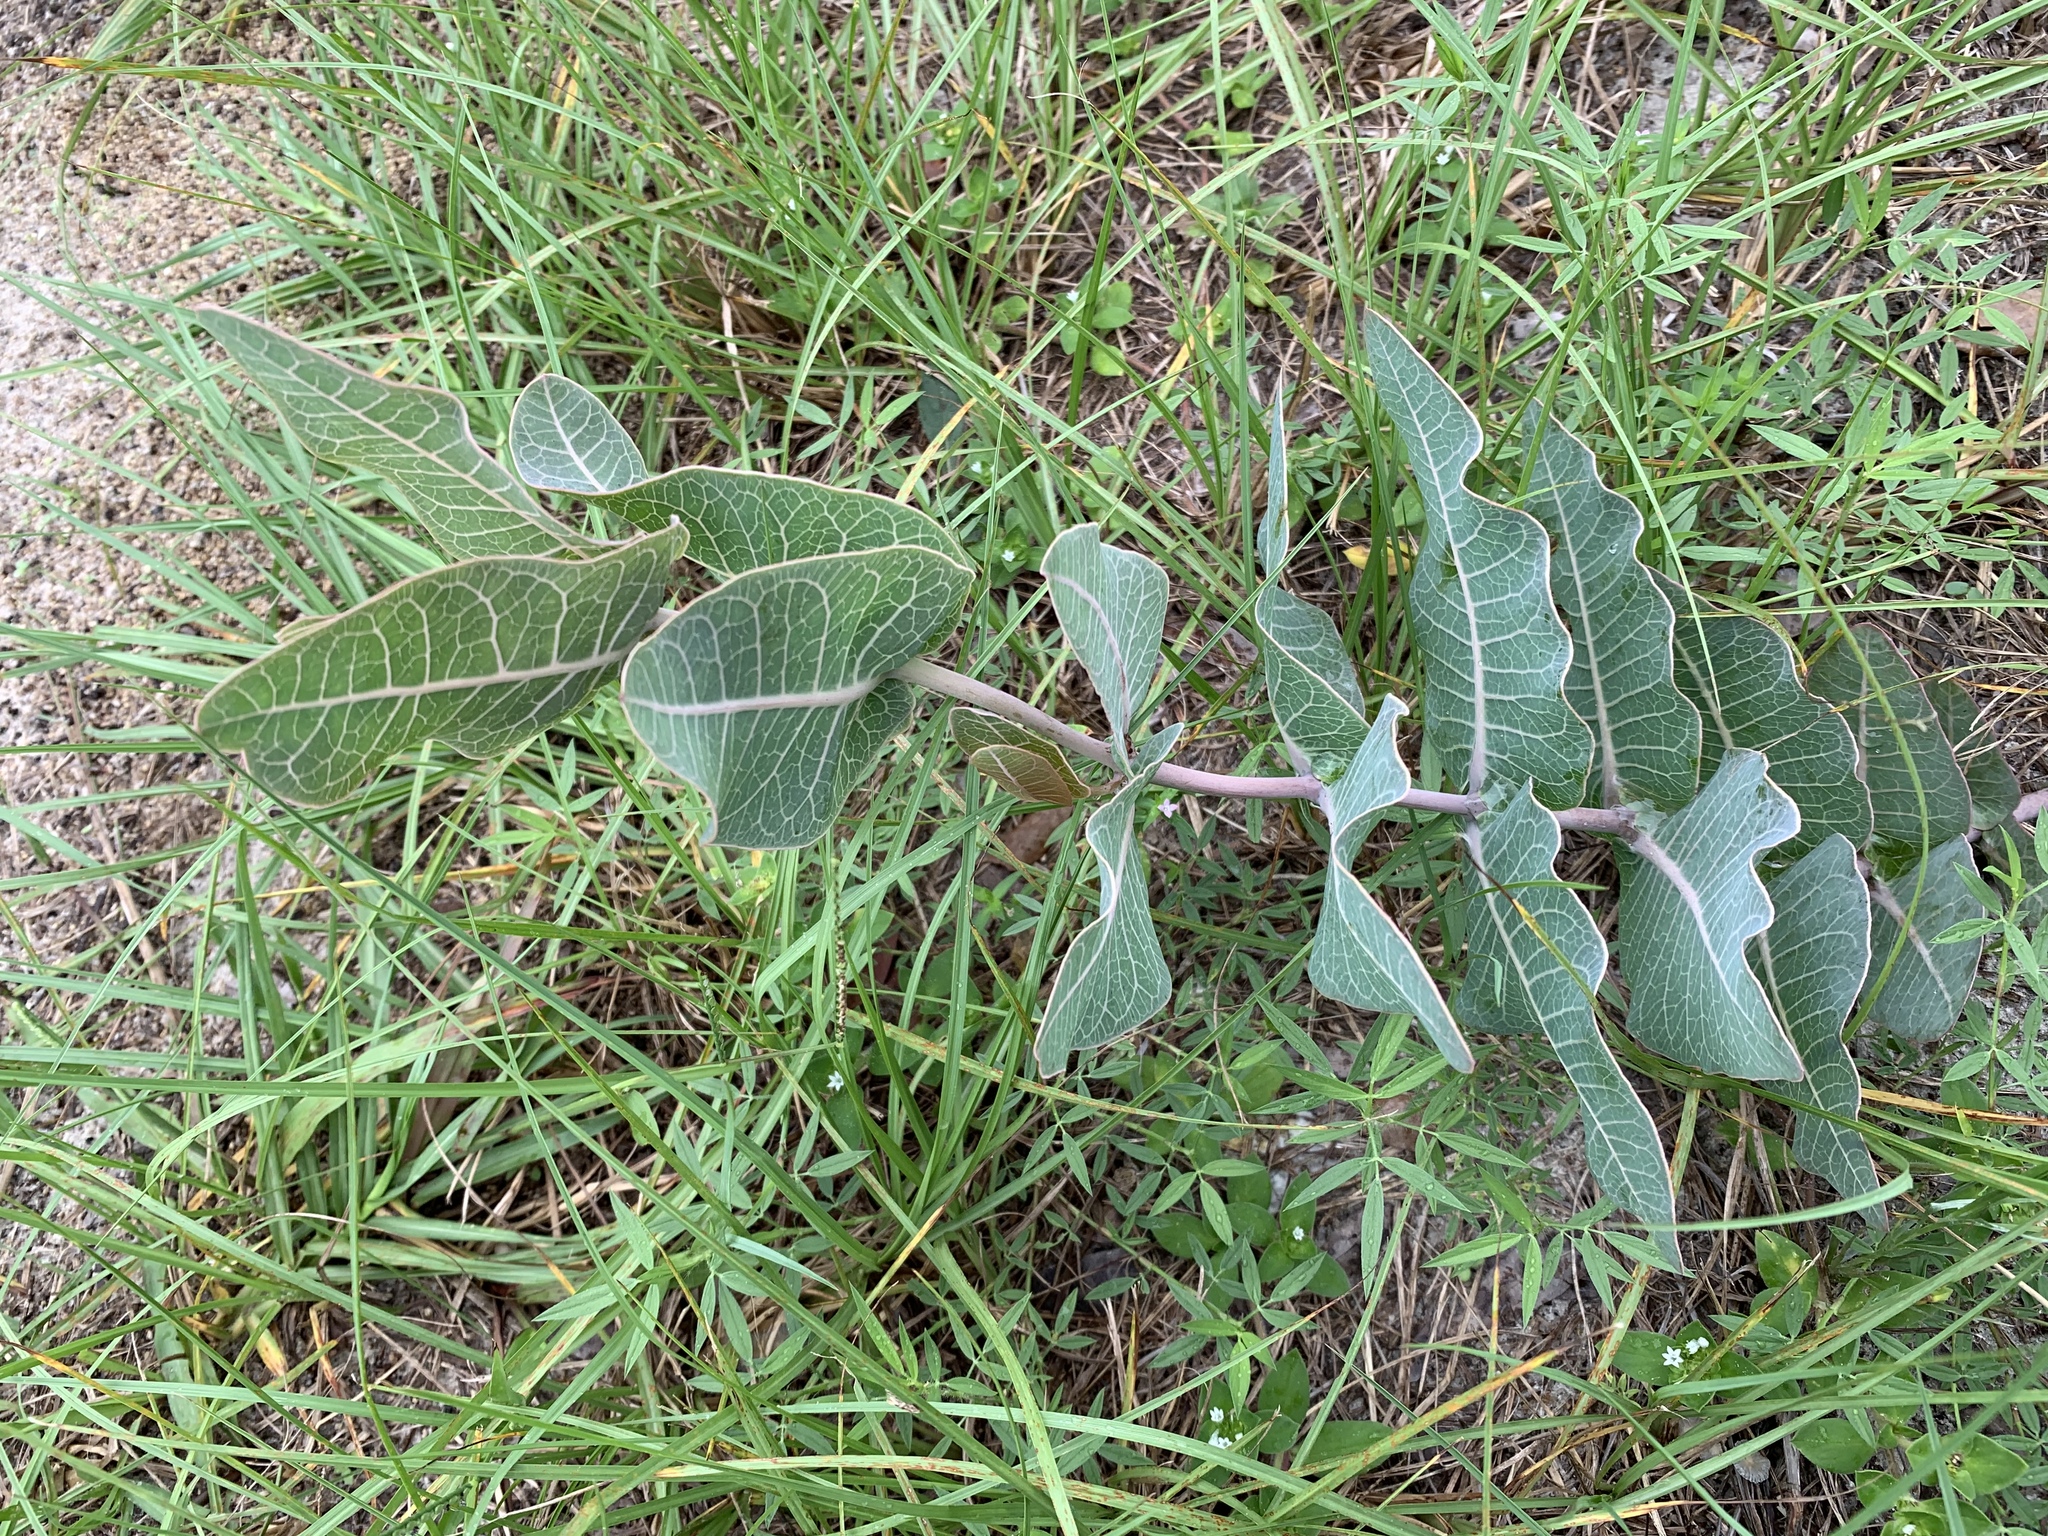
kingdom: Plantae
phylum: Tracheophyta
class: Magnoliopsida
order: Gentianales
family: Apocynaceae
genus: Asclepias
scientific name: Asclepias humistrata
